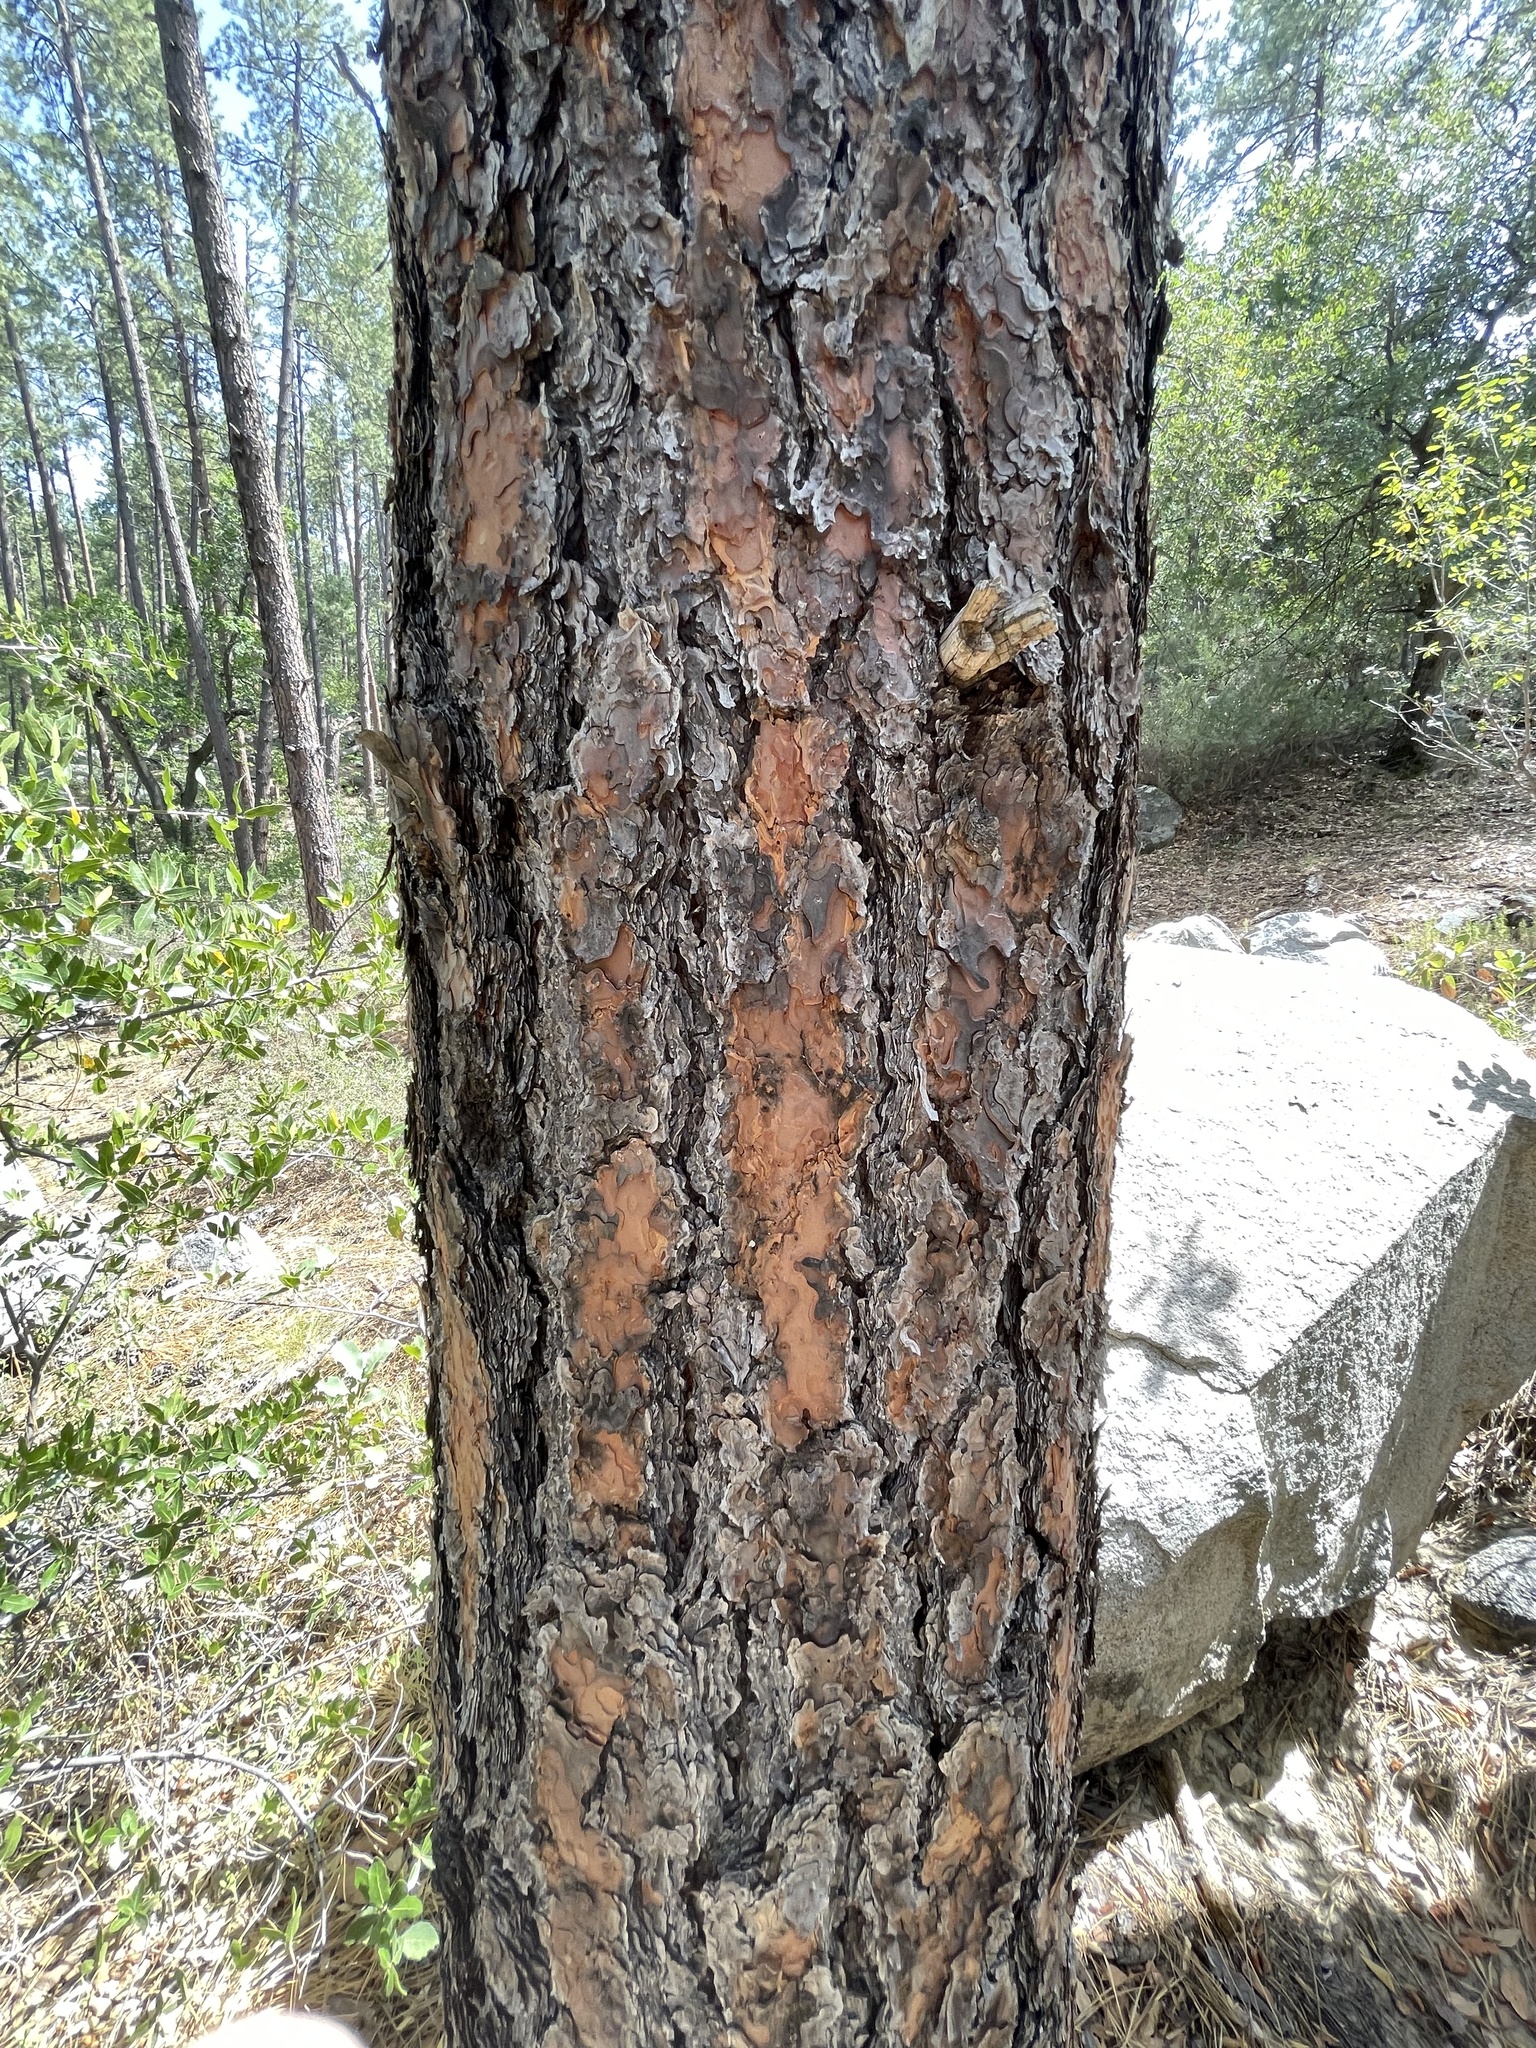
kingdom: Plantae
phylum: Tracheophyta
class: Pinopsida
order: Pinales
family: Pinaceae
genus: Pinus
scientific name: Pinus ponderosa
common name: Western yellow-pine
